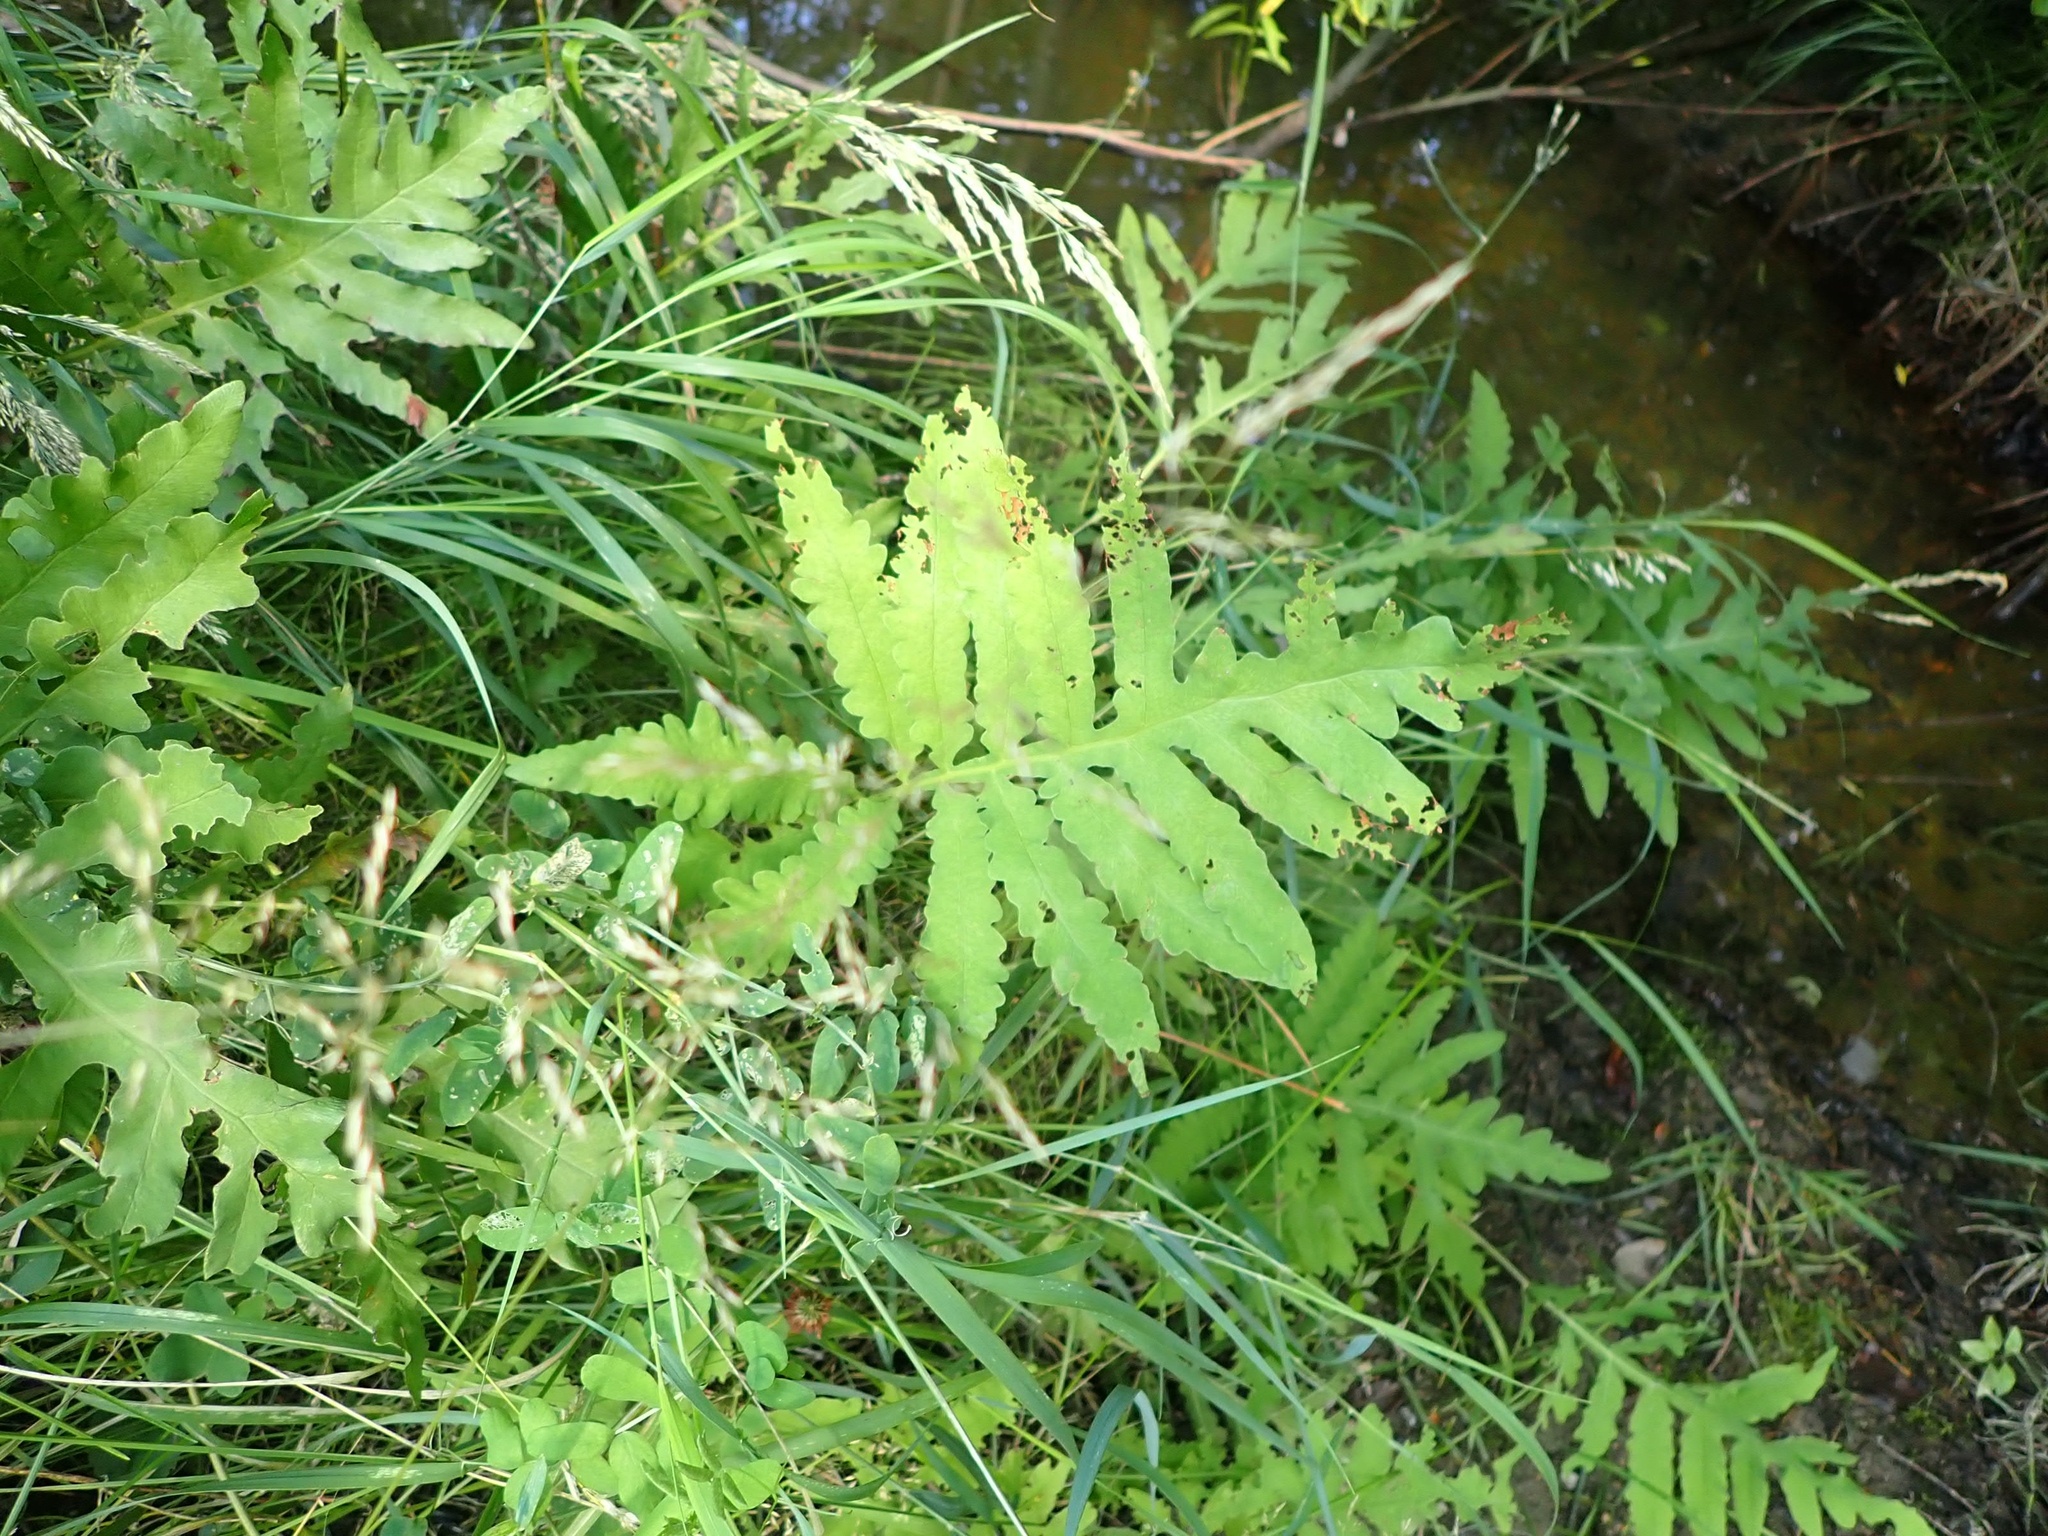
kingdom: Plantae
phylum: Tracheophyta
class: Polypodiopsida
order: Polypodiales
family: Onocleaceae
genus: Onoclea
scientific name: Onoclea sensibilis
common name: Sensitive fern
